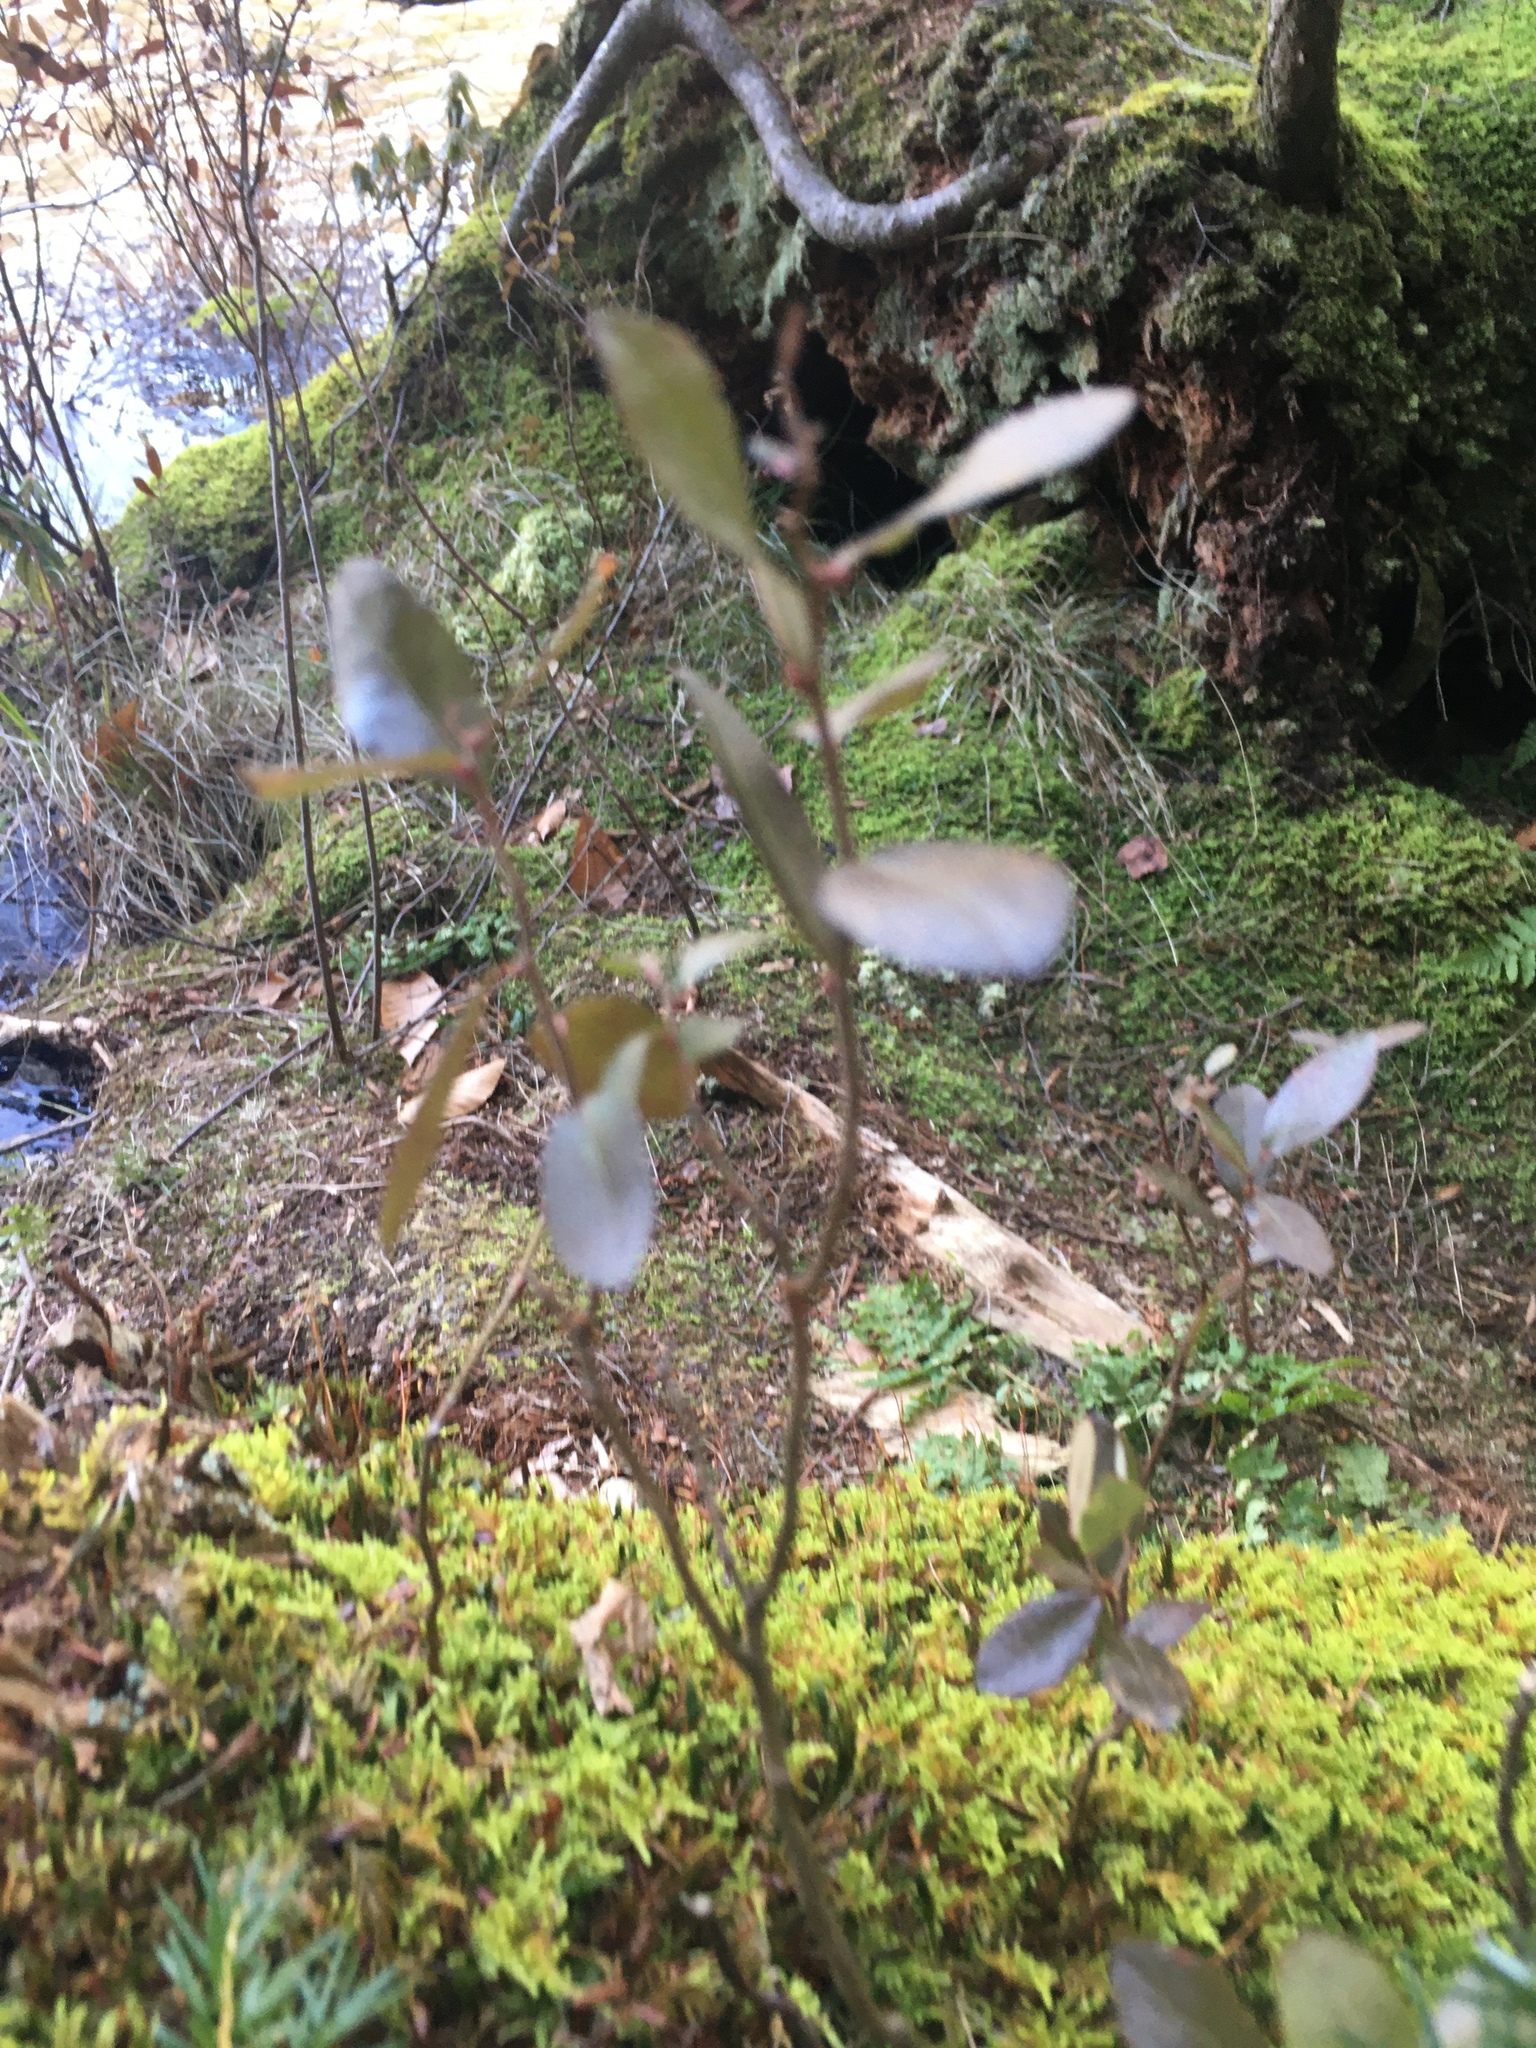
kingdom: Plantae
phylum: Tracheophyta
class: Magnoliopsida
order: Ericales
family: Ericaceae
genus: Chamaedaphne
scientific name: Chamaedaphne calyculata
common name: Leatherleaf
